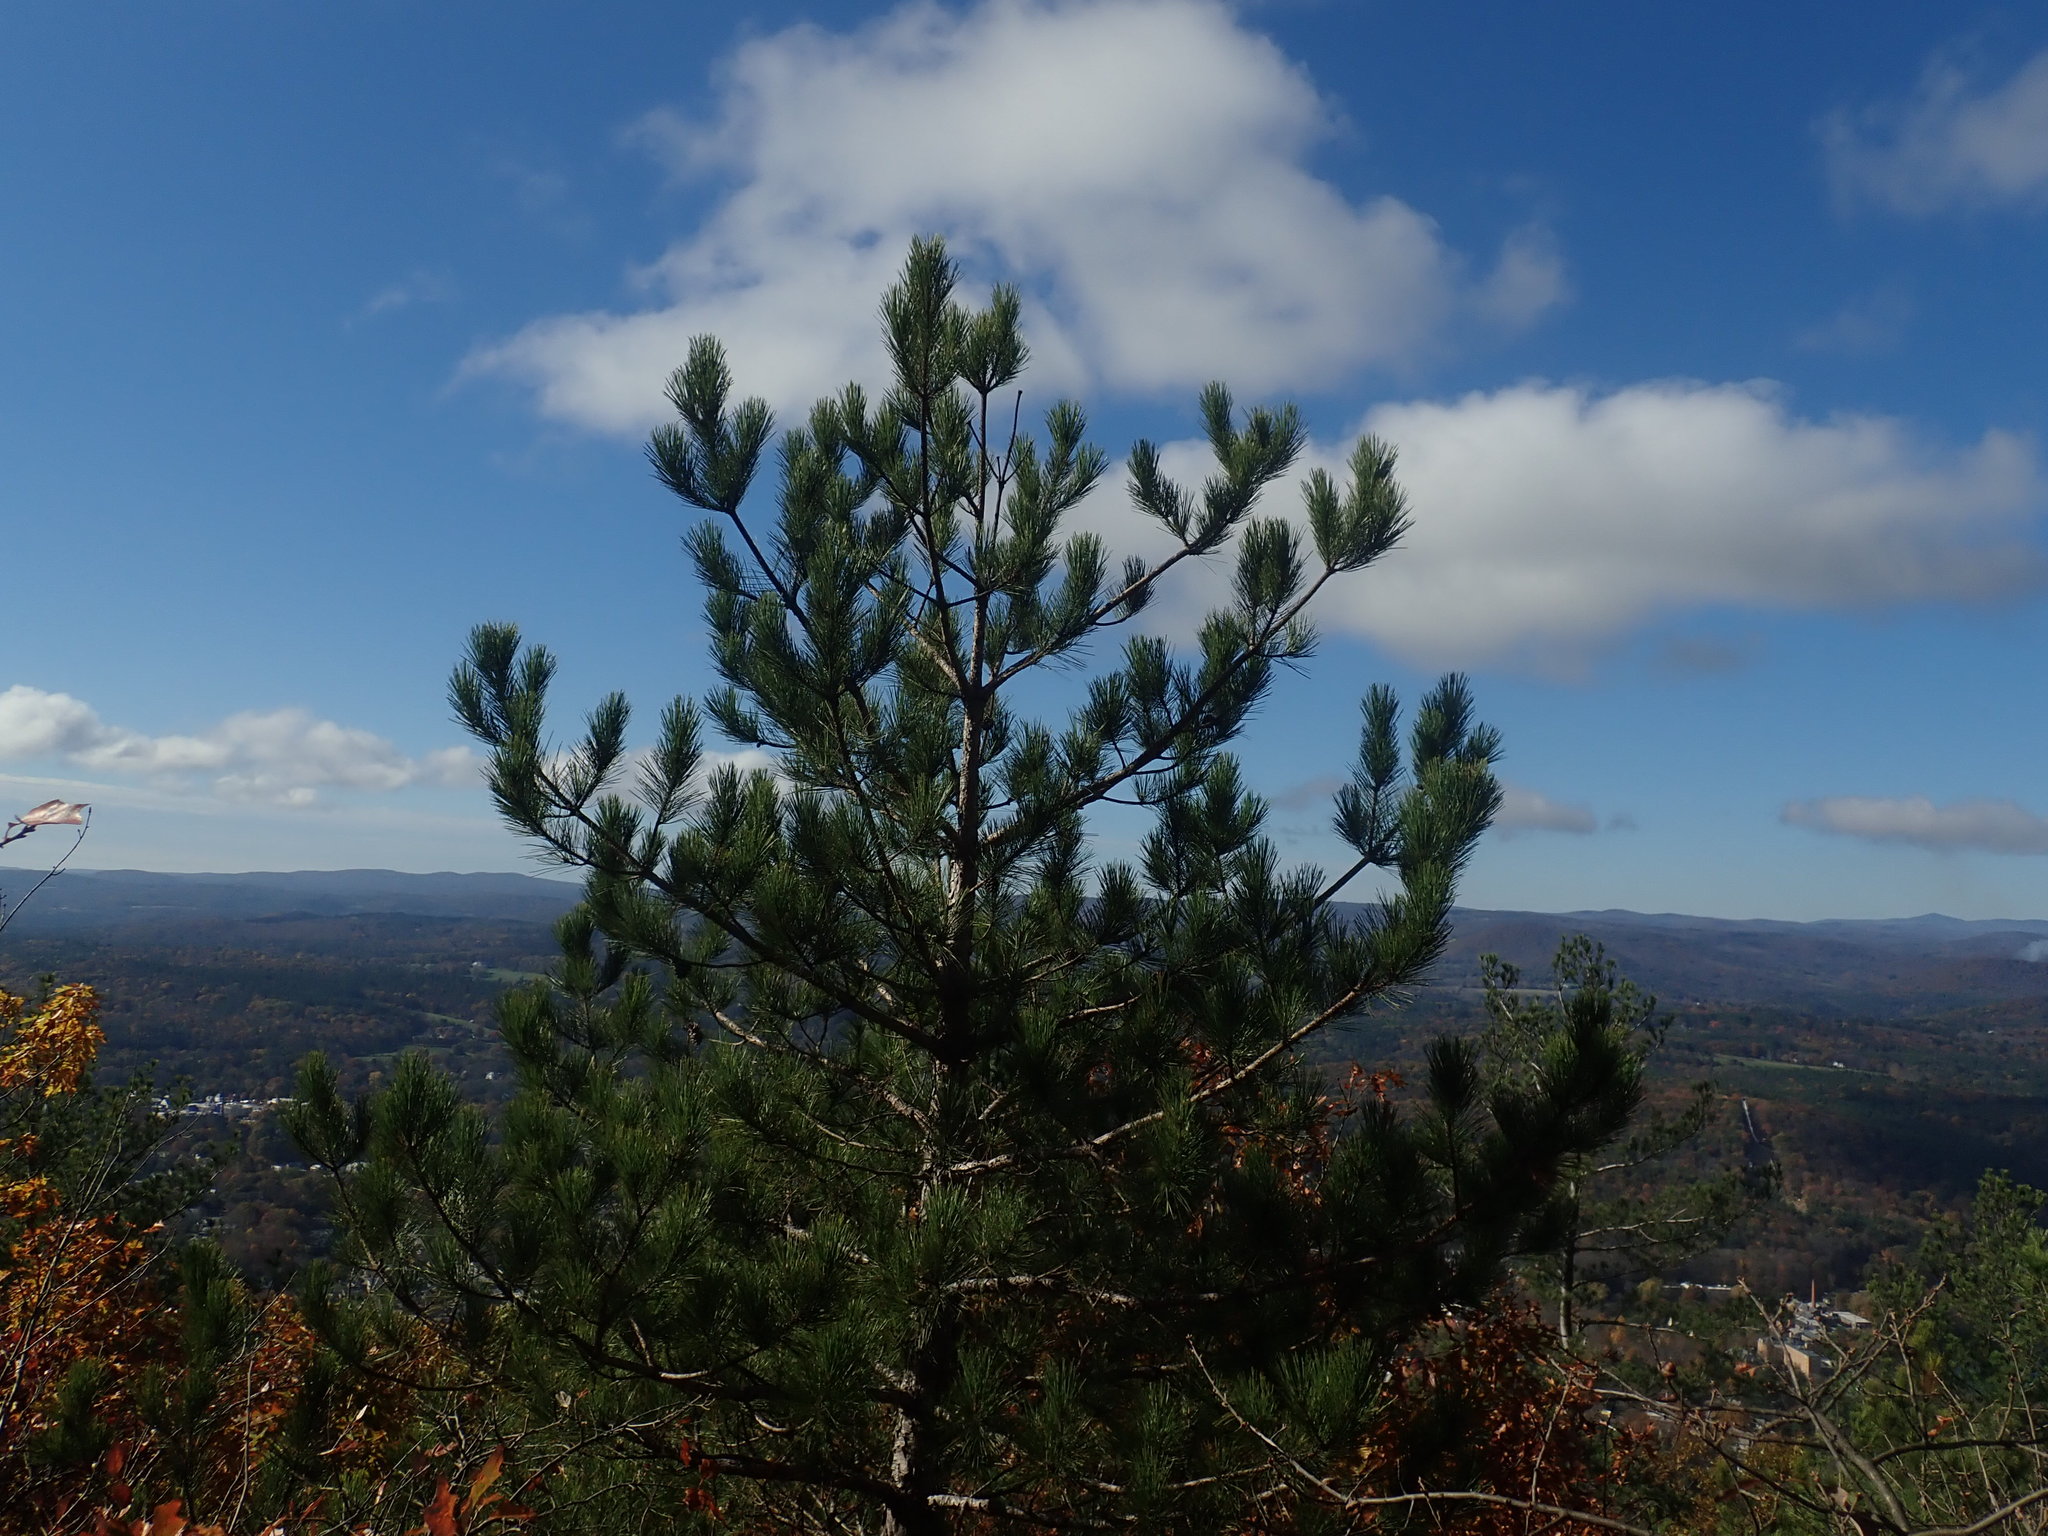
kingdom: Plantae
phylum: Tracheophyta
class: Pinopsida
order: Pinales
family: Pinaceae
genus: Pinus
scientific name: Pinus resinosa
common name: Norway pine
